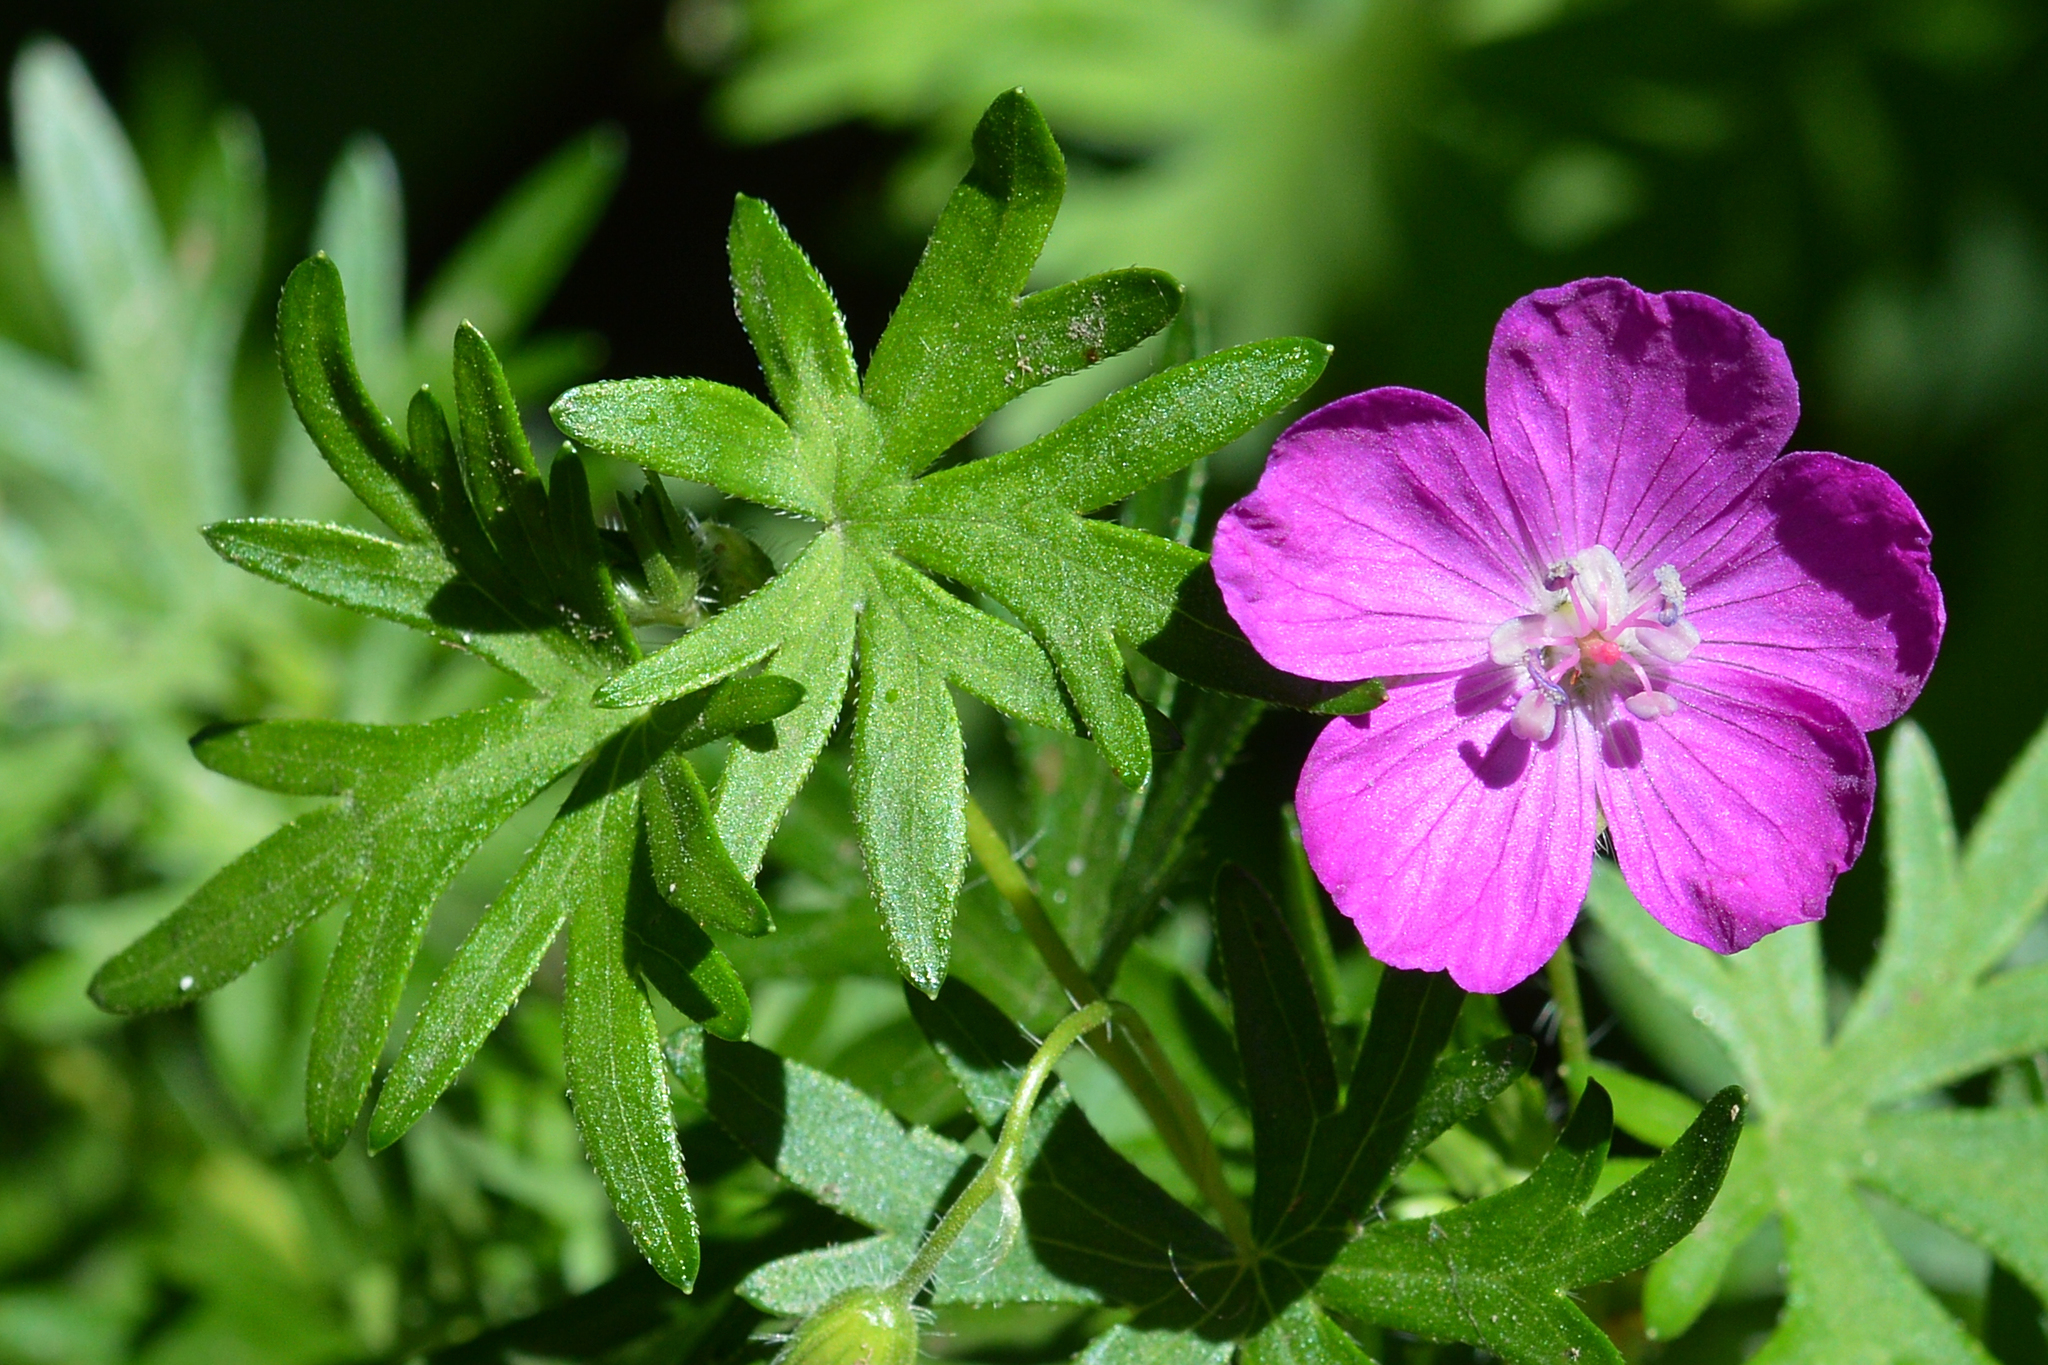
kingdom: Plantae
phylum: Tracheophyta
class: Magnoliopsida
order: Geraniales
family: Geraniaceae
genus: Geranium
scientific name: Geranium sanguineum
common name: Bloody crane's-bill
